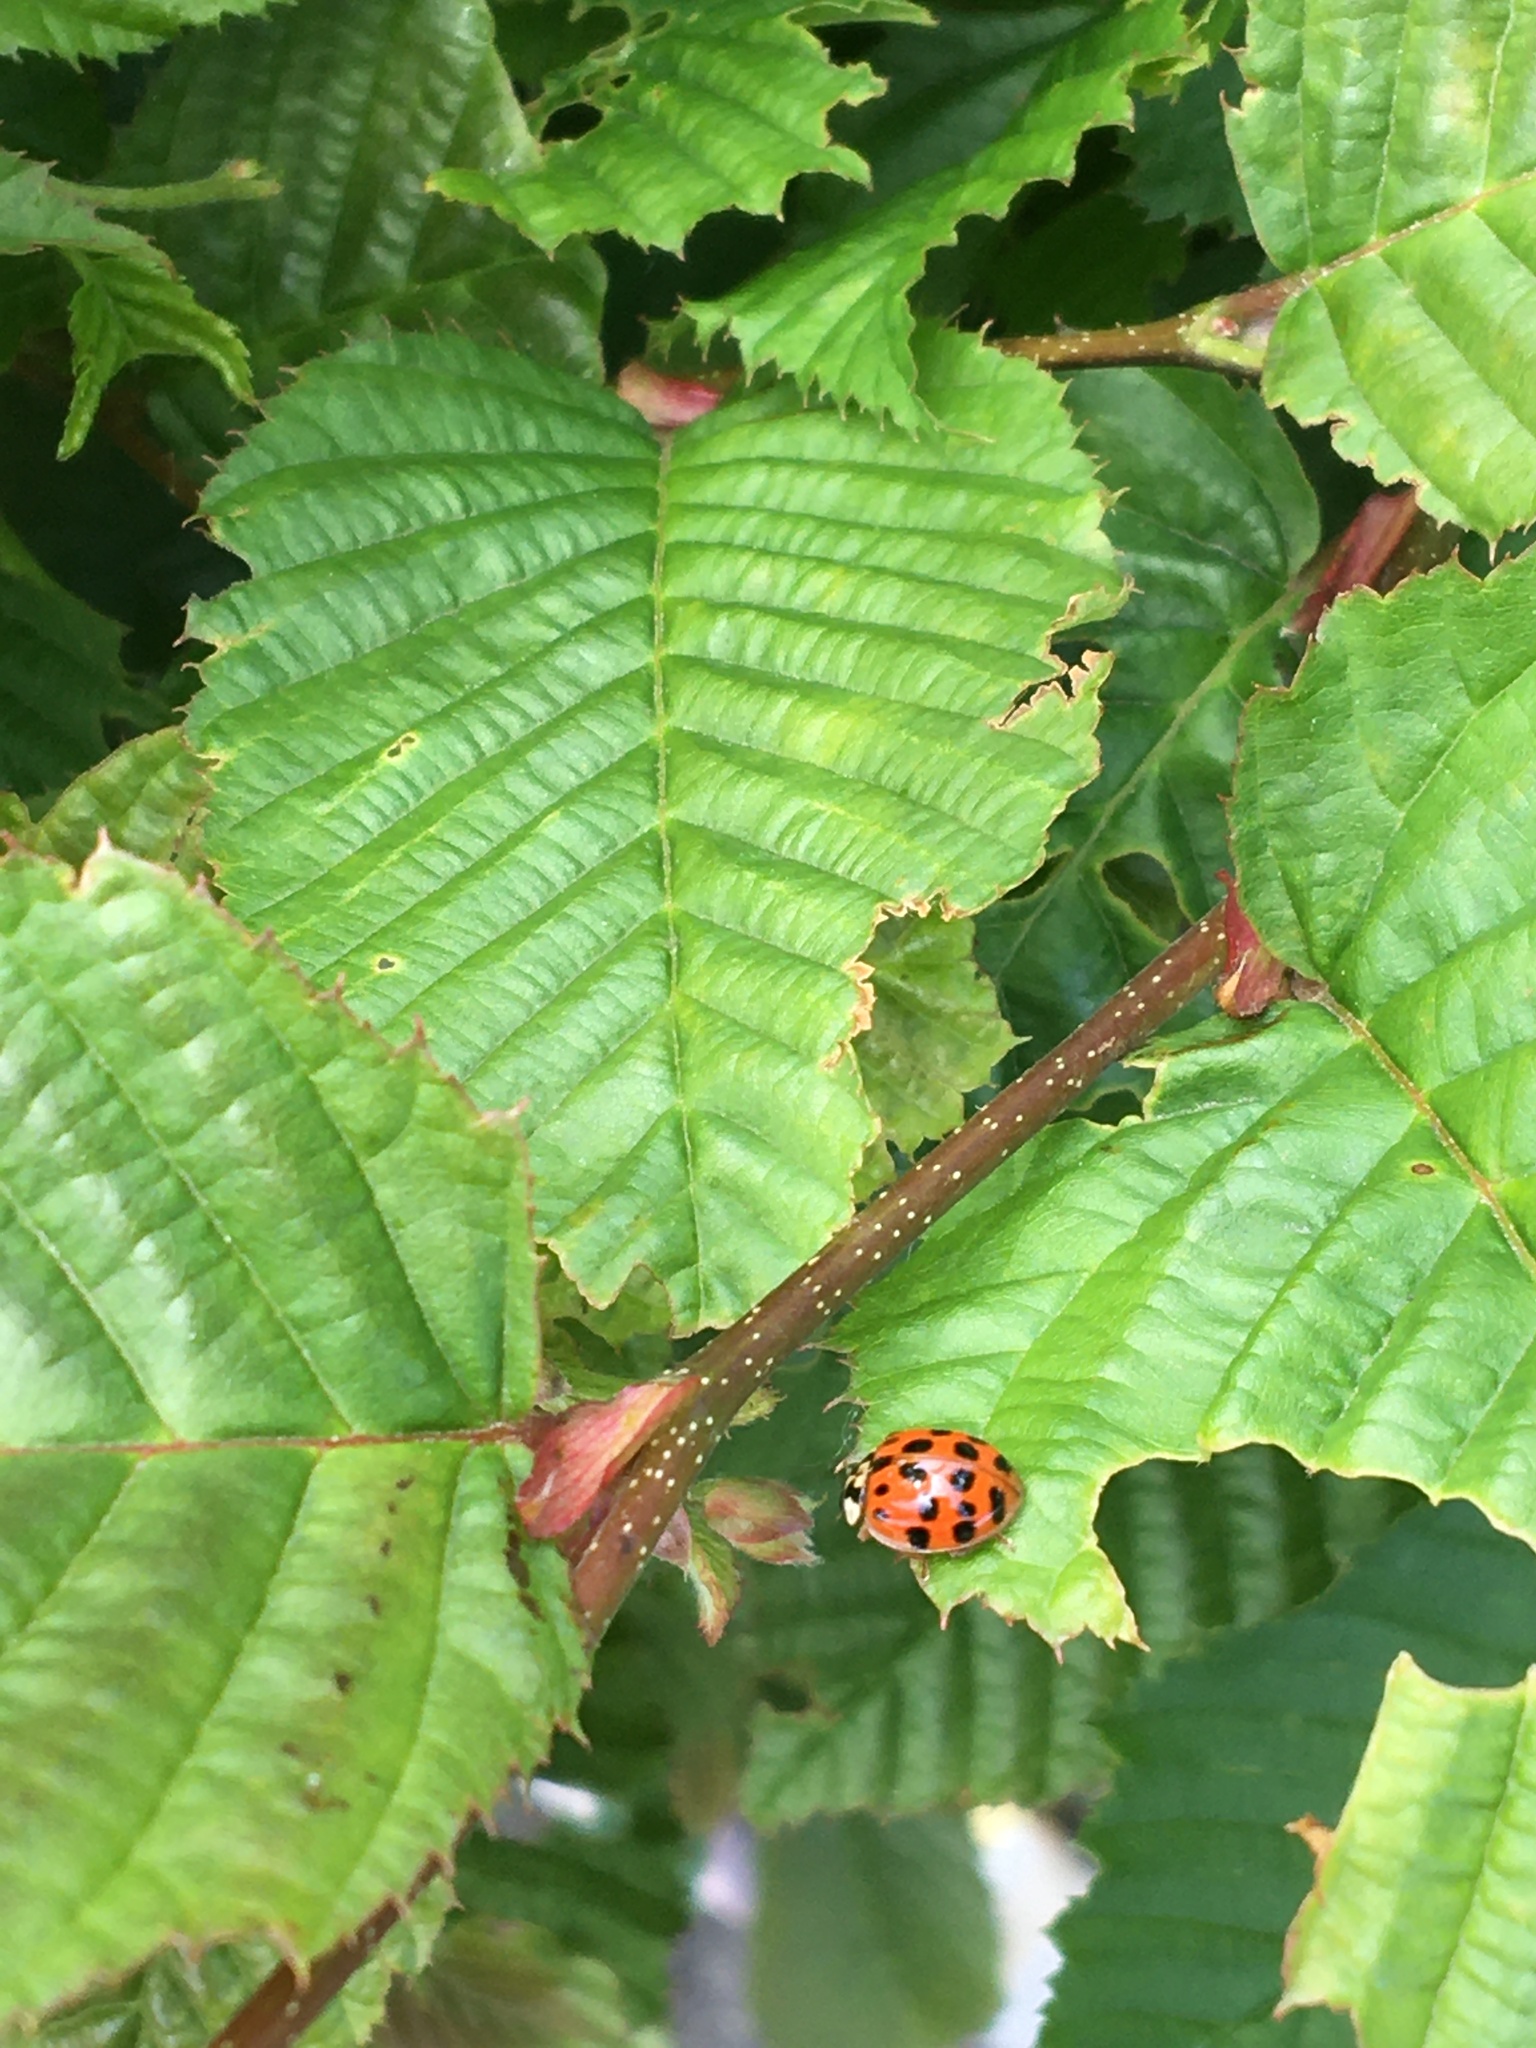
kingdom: Animalia
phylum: Arthropoda
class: Insecta
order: Coleoptera
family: Coccinellidae
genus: Harmonia
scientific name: Harmonia axyridis
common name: Harlequin ladybird
